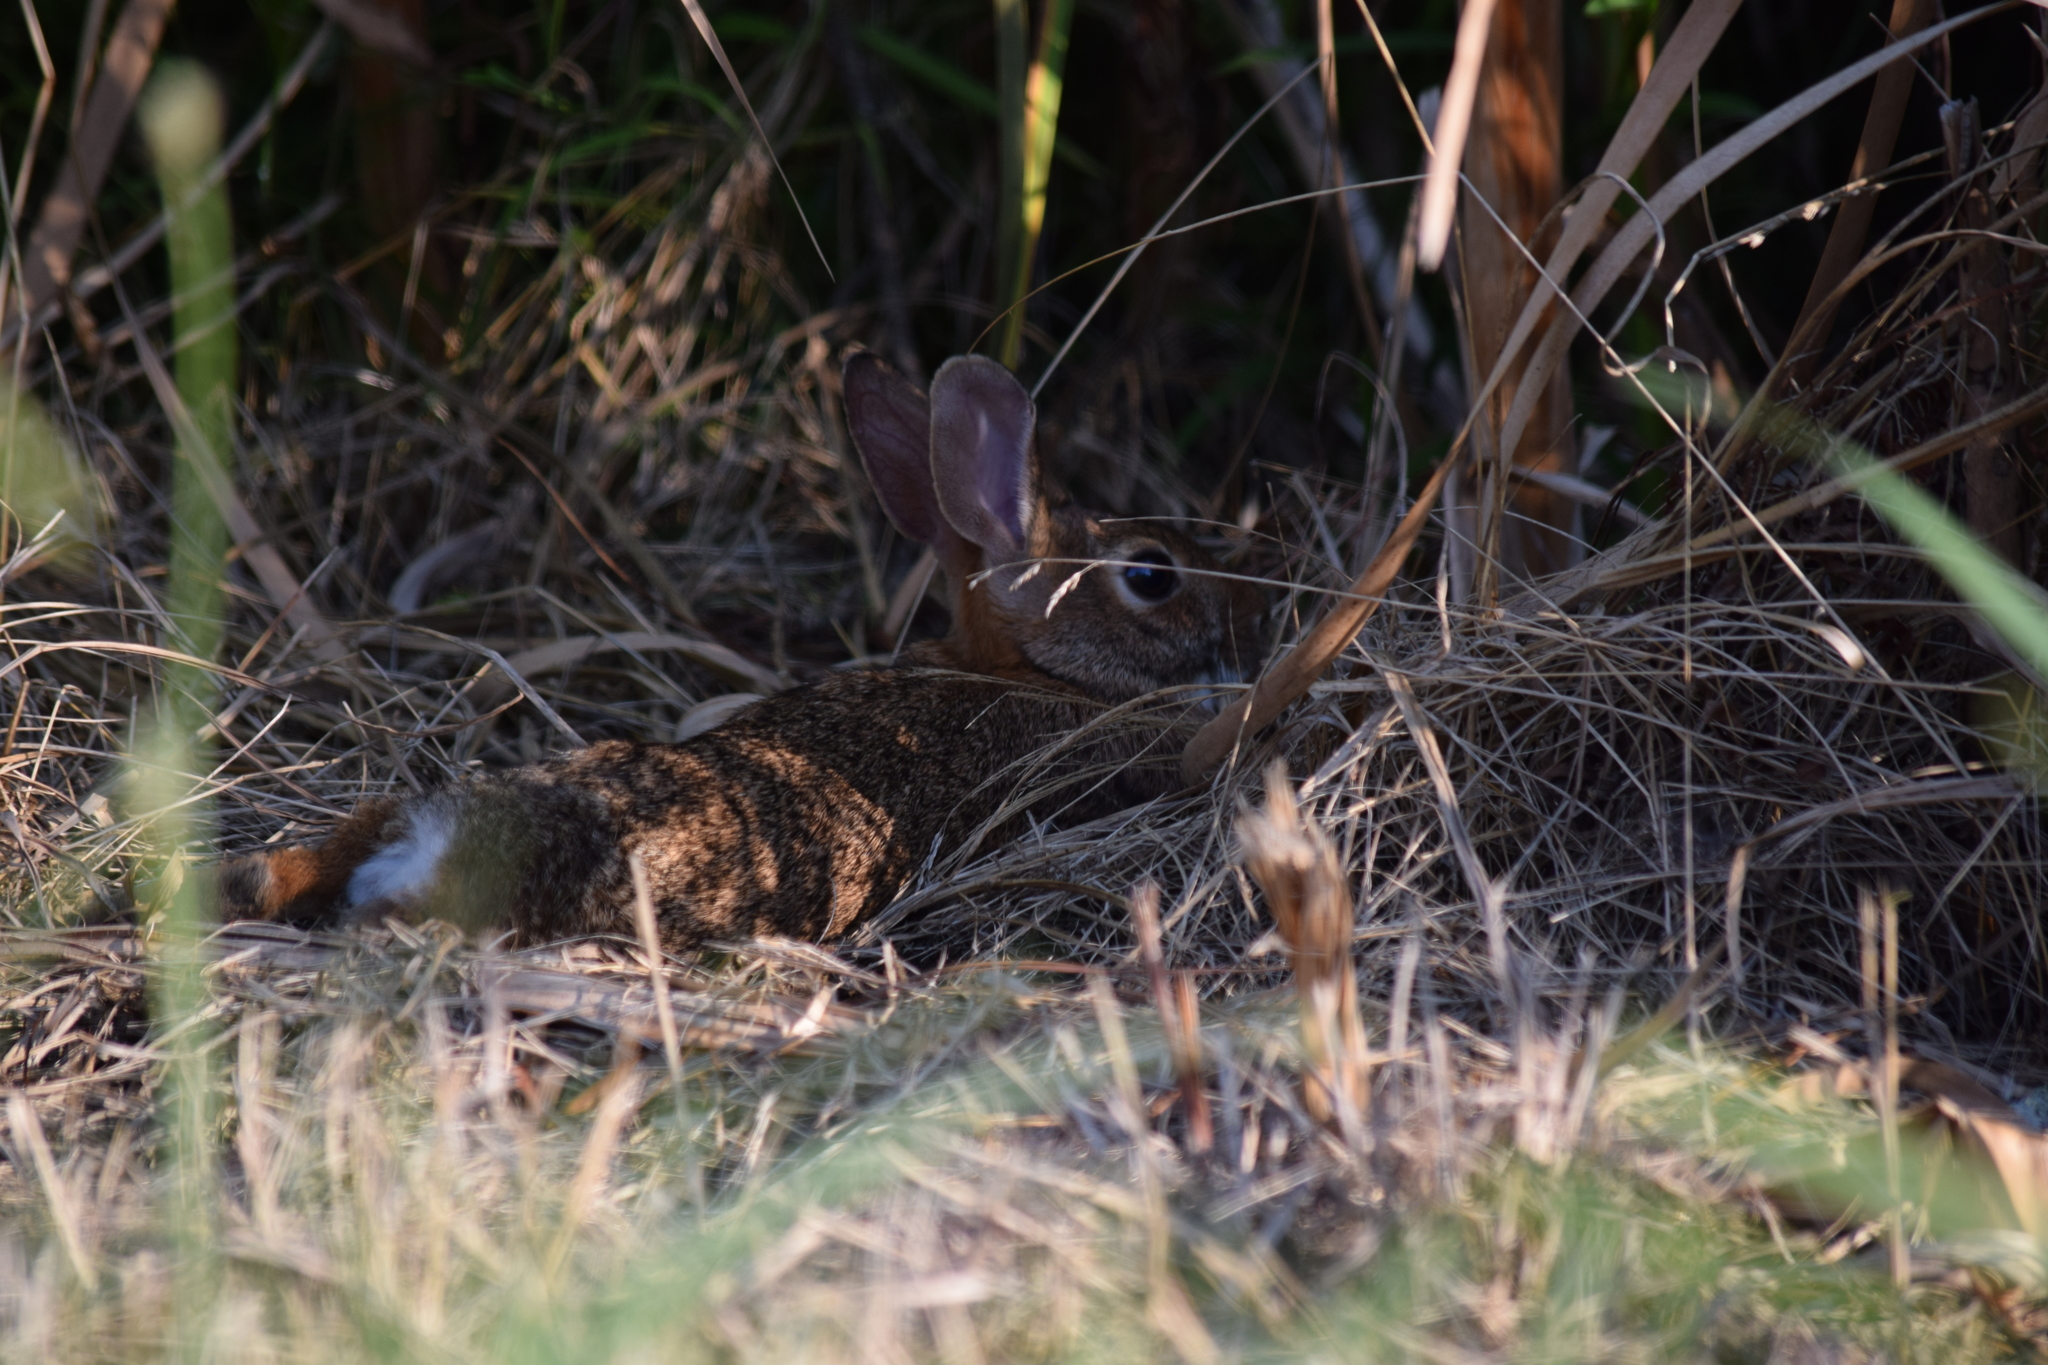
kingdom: Animalia
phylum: Chordata
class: Mammalia
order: Lagomorpha
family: Leporidae
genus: Sylvilagus
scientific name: Sylvilagus floridanus
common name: Eastern cottontail
